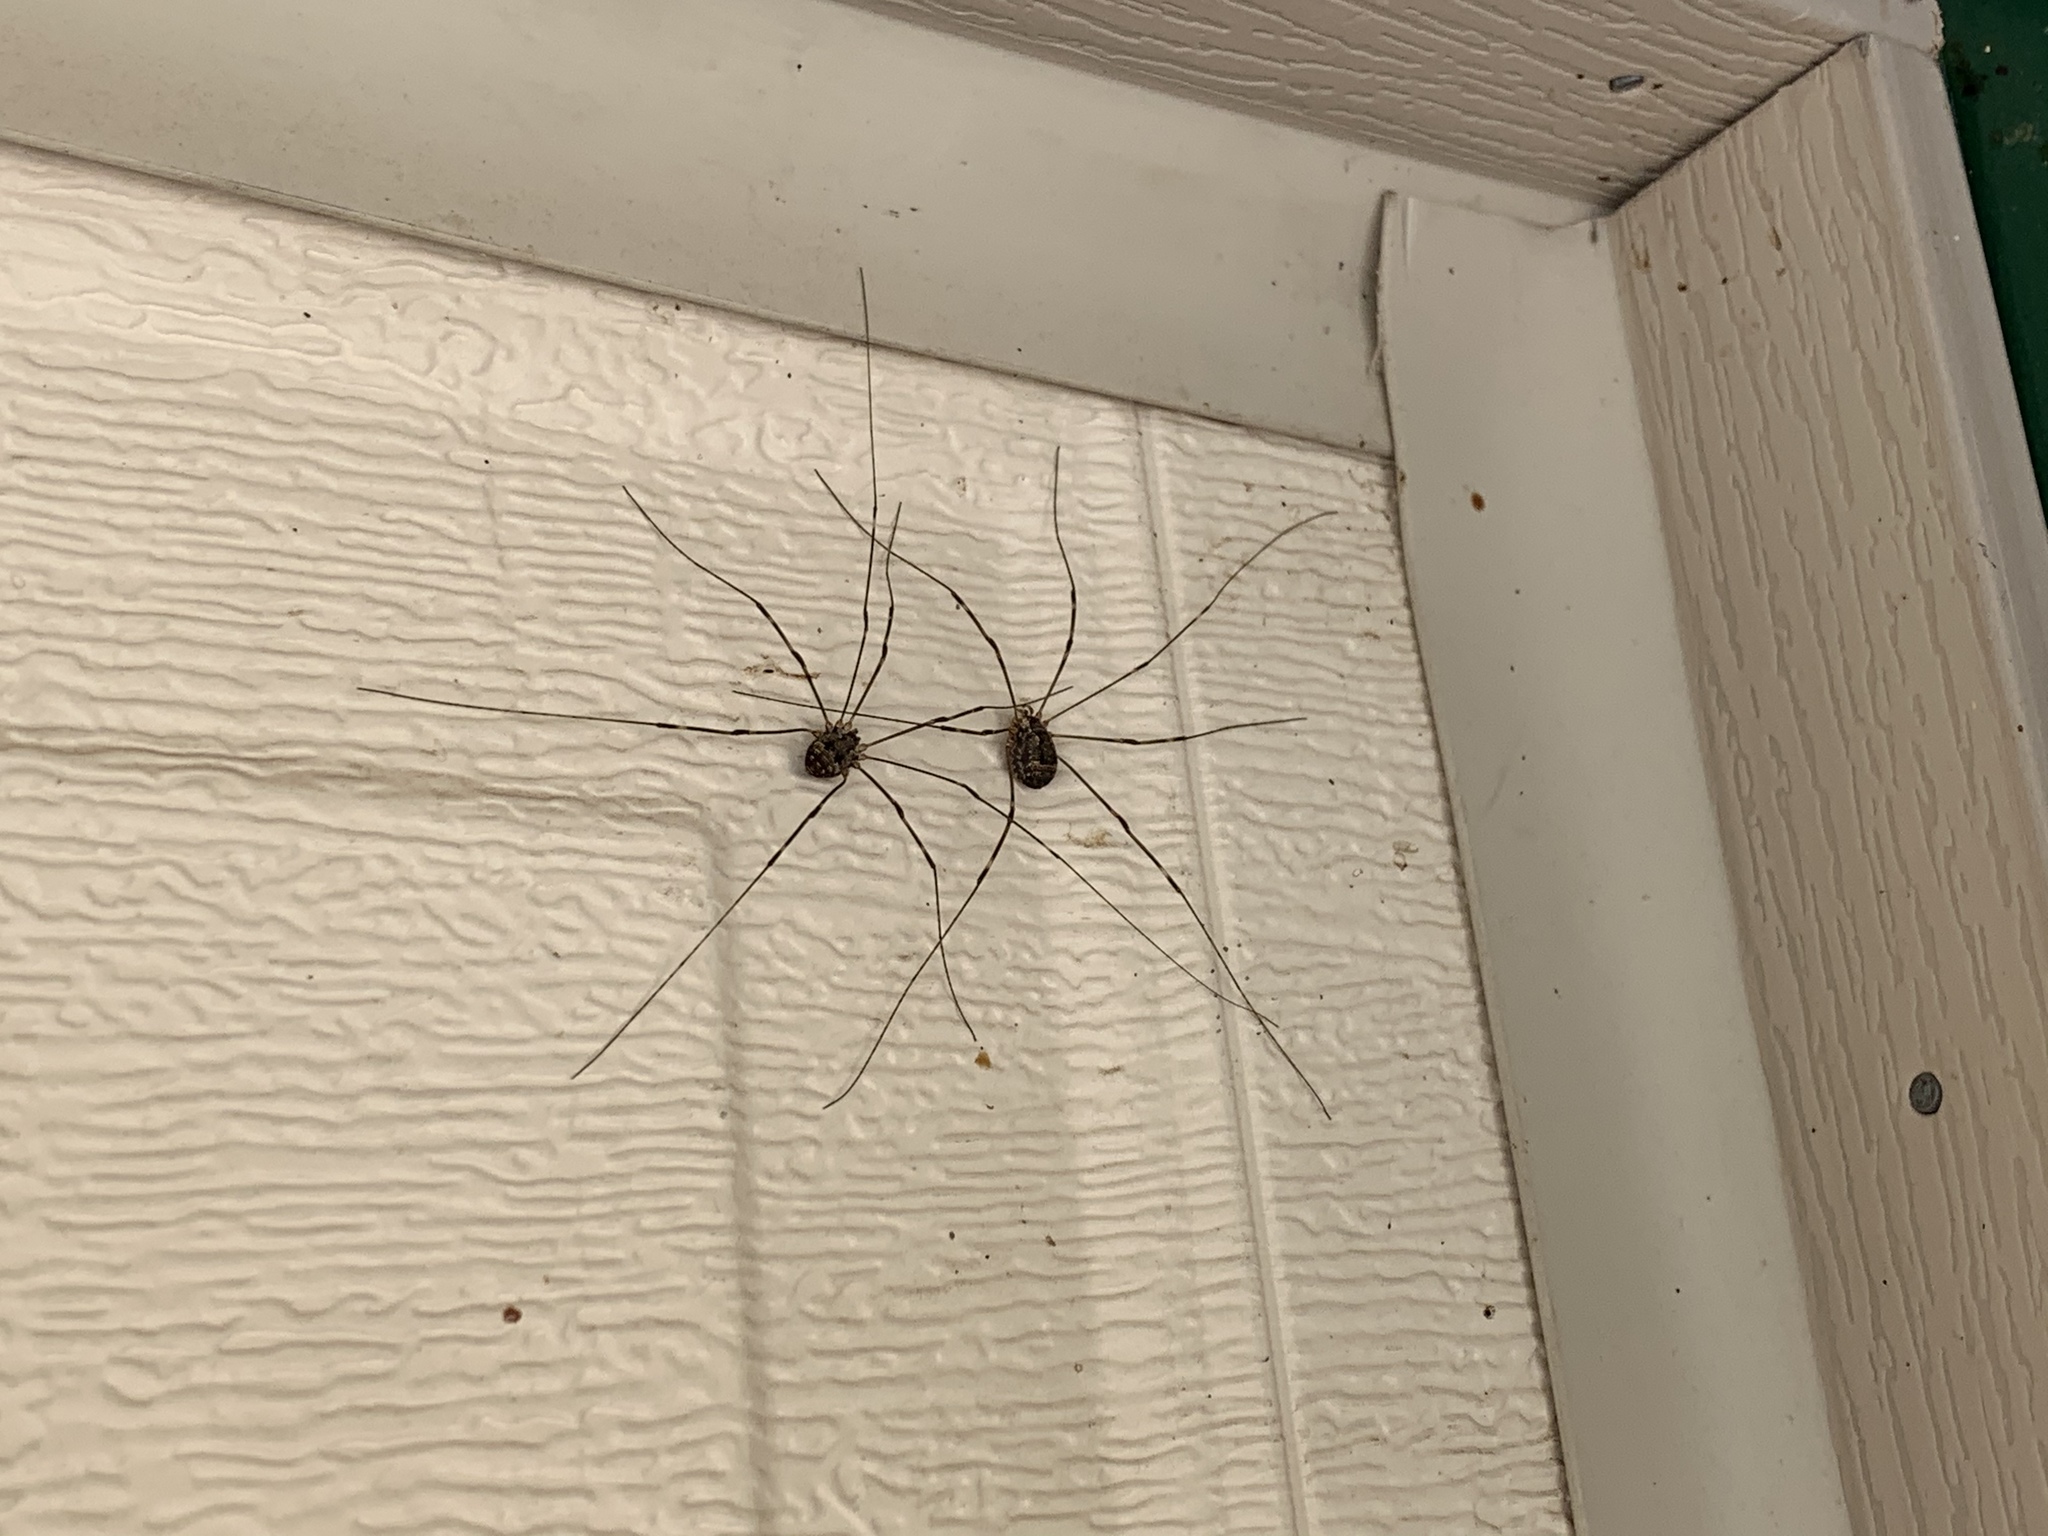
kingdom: Animalia
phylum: Arthropoda
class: Arachnida
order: Opiliones
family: Sclerosomatidae
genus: Leiobunum
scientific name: Leiobunum townsendi
